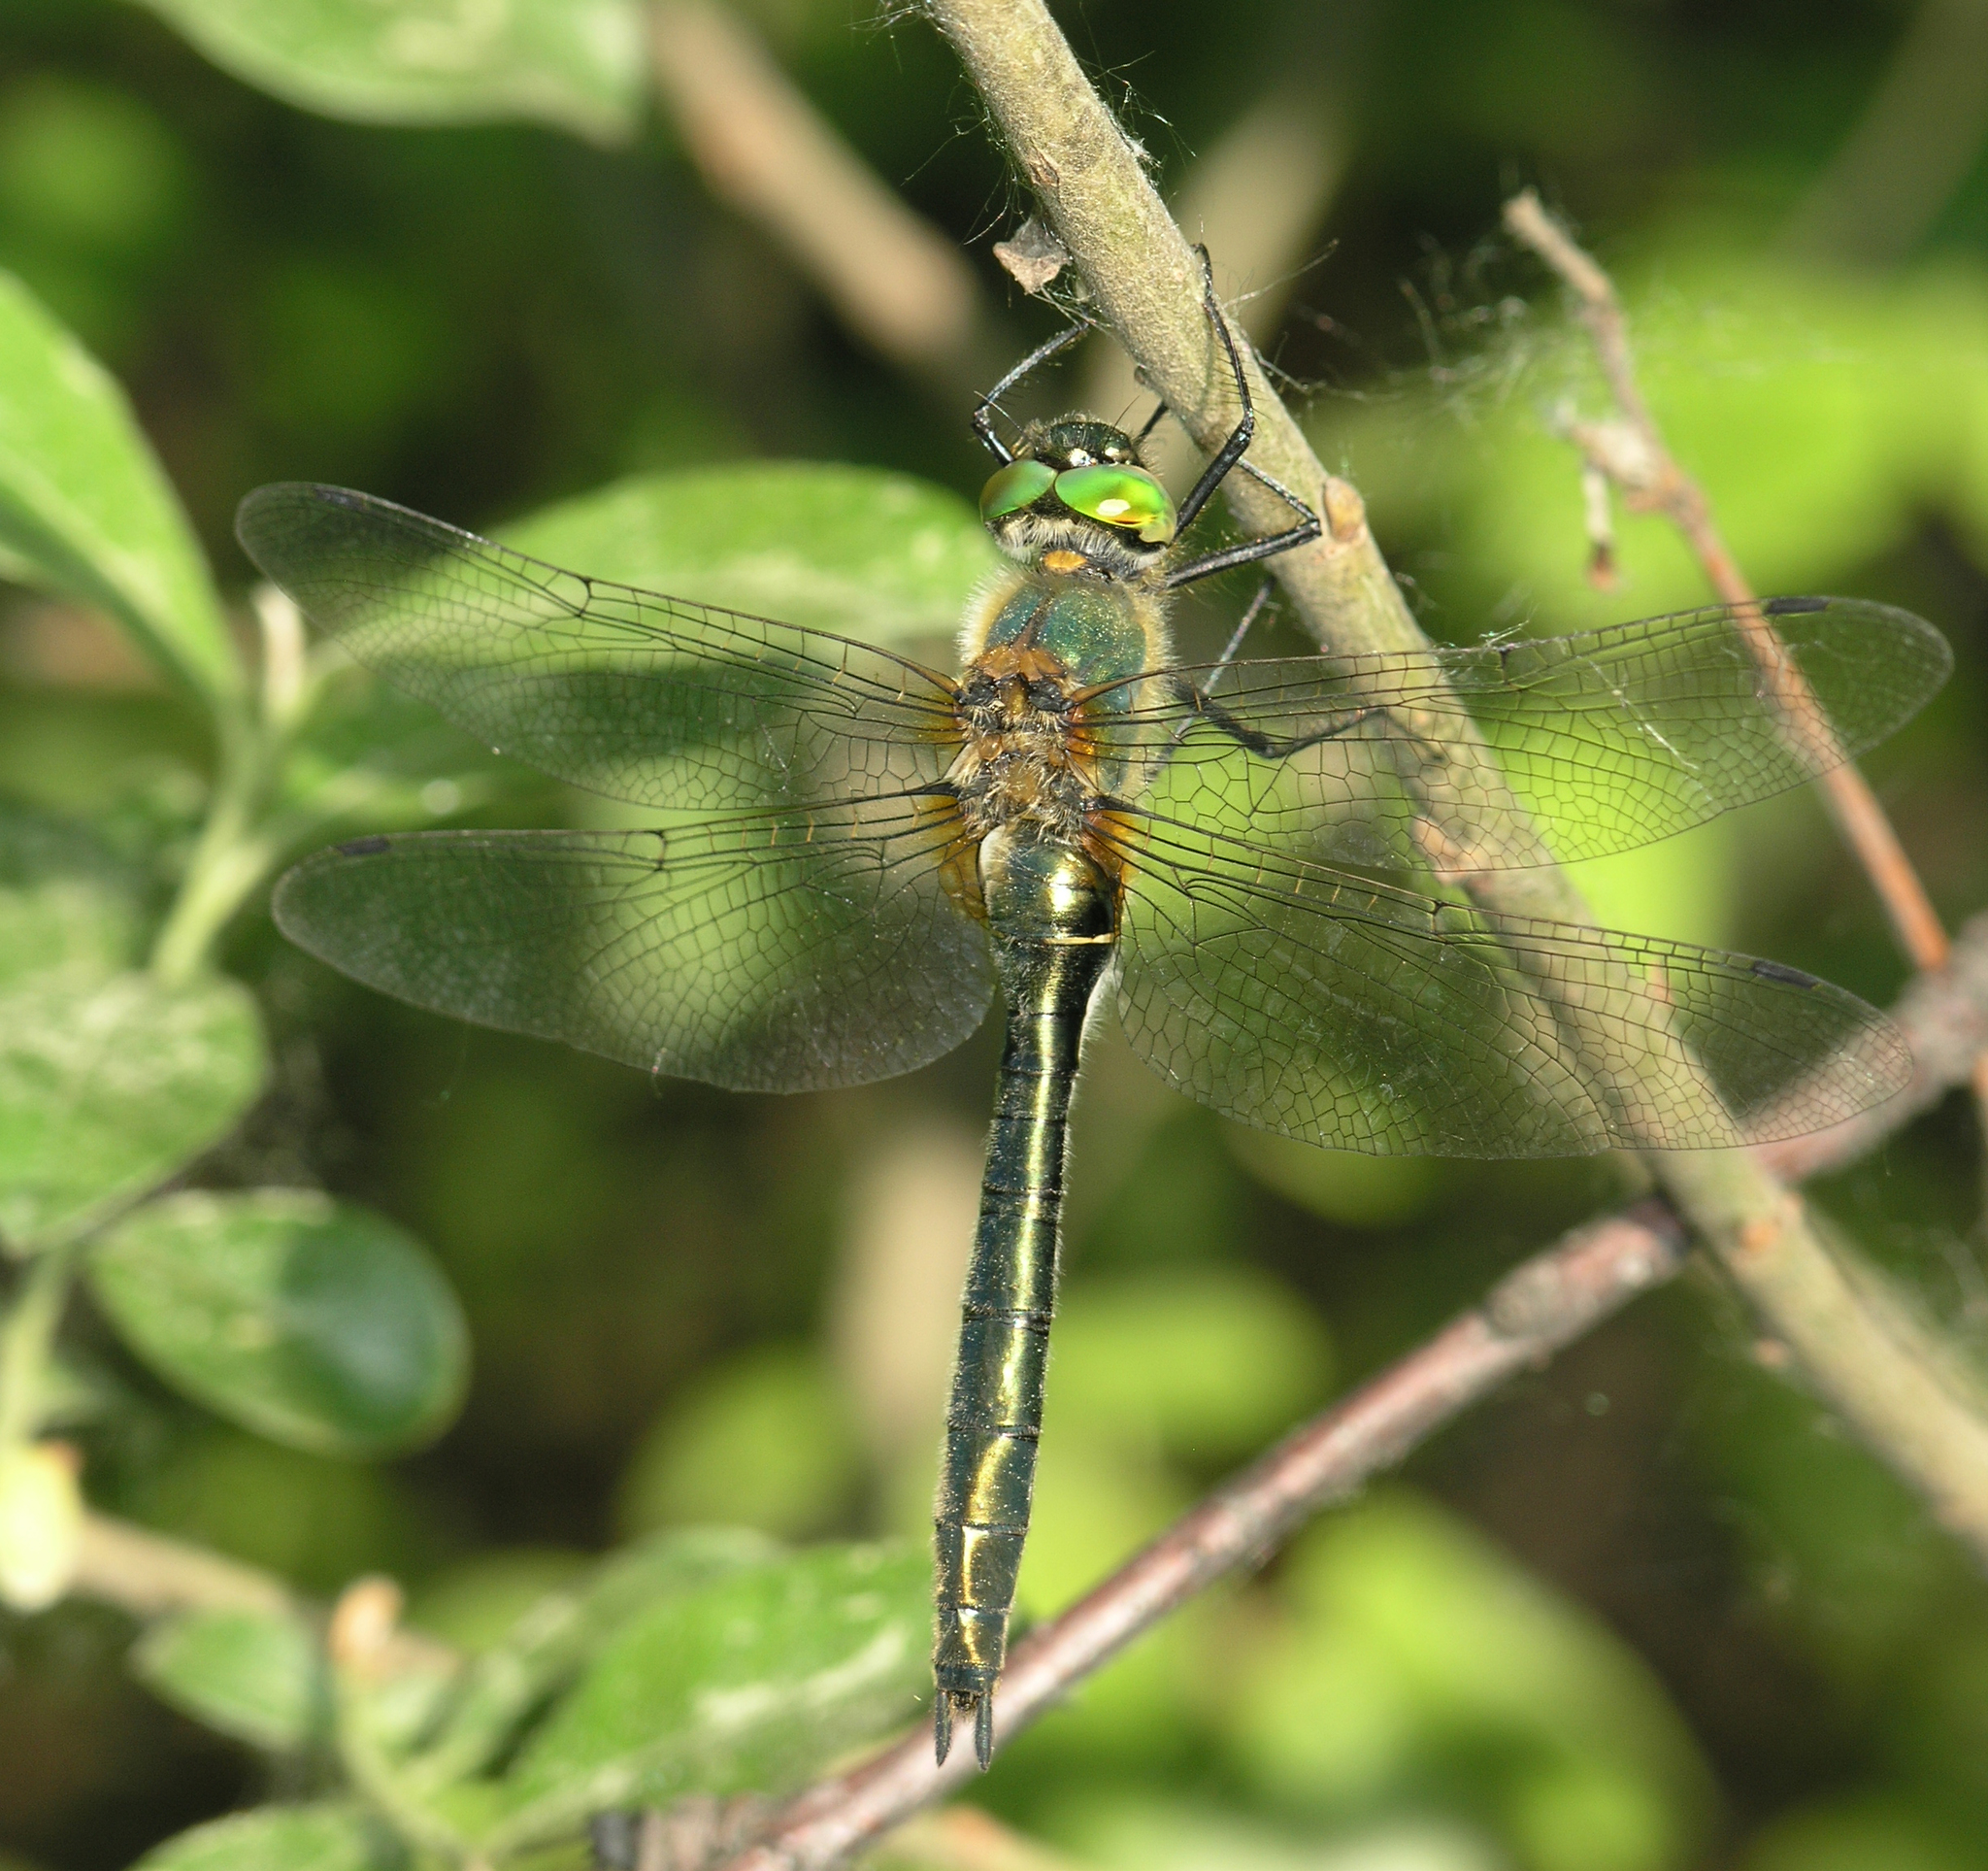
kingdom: Animalia
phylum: Arthropoda
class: Insecta
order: Odonata
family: Corduliidae
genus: Cordulia
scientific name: Cordulia aenea
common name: Downy emerald
